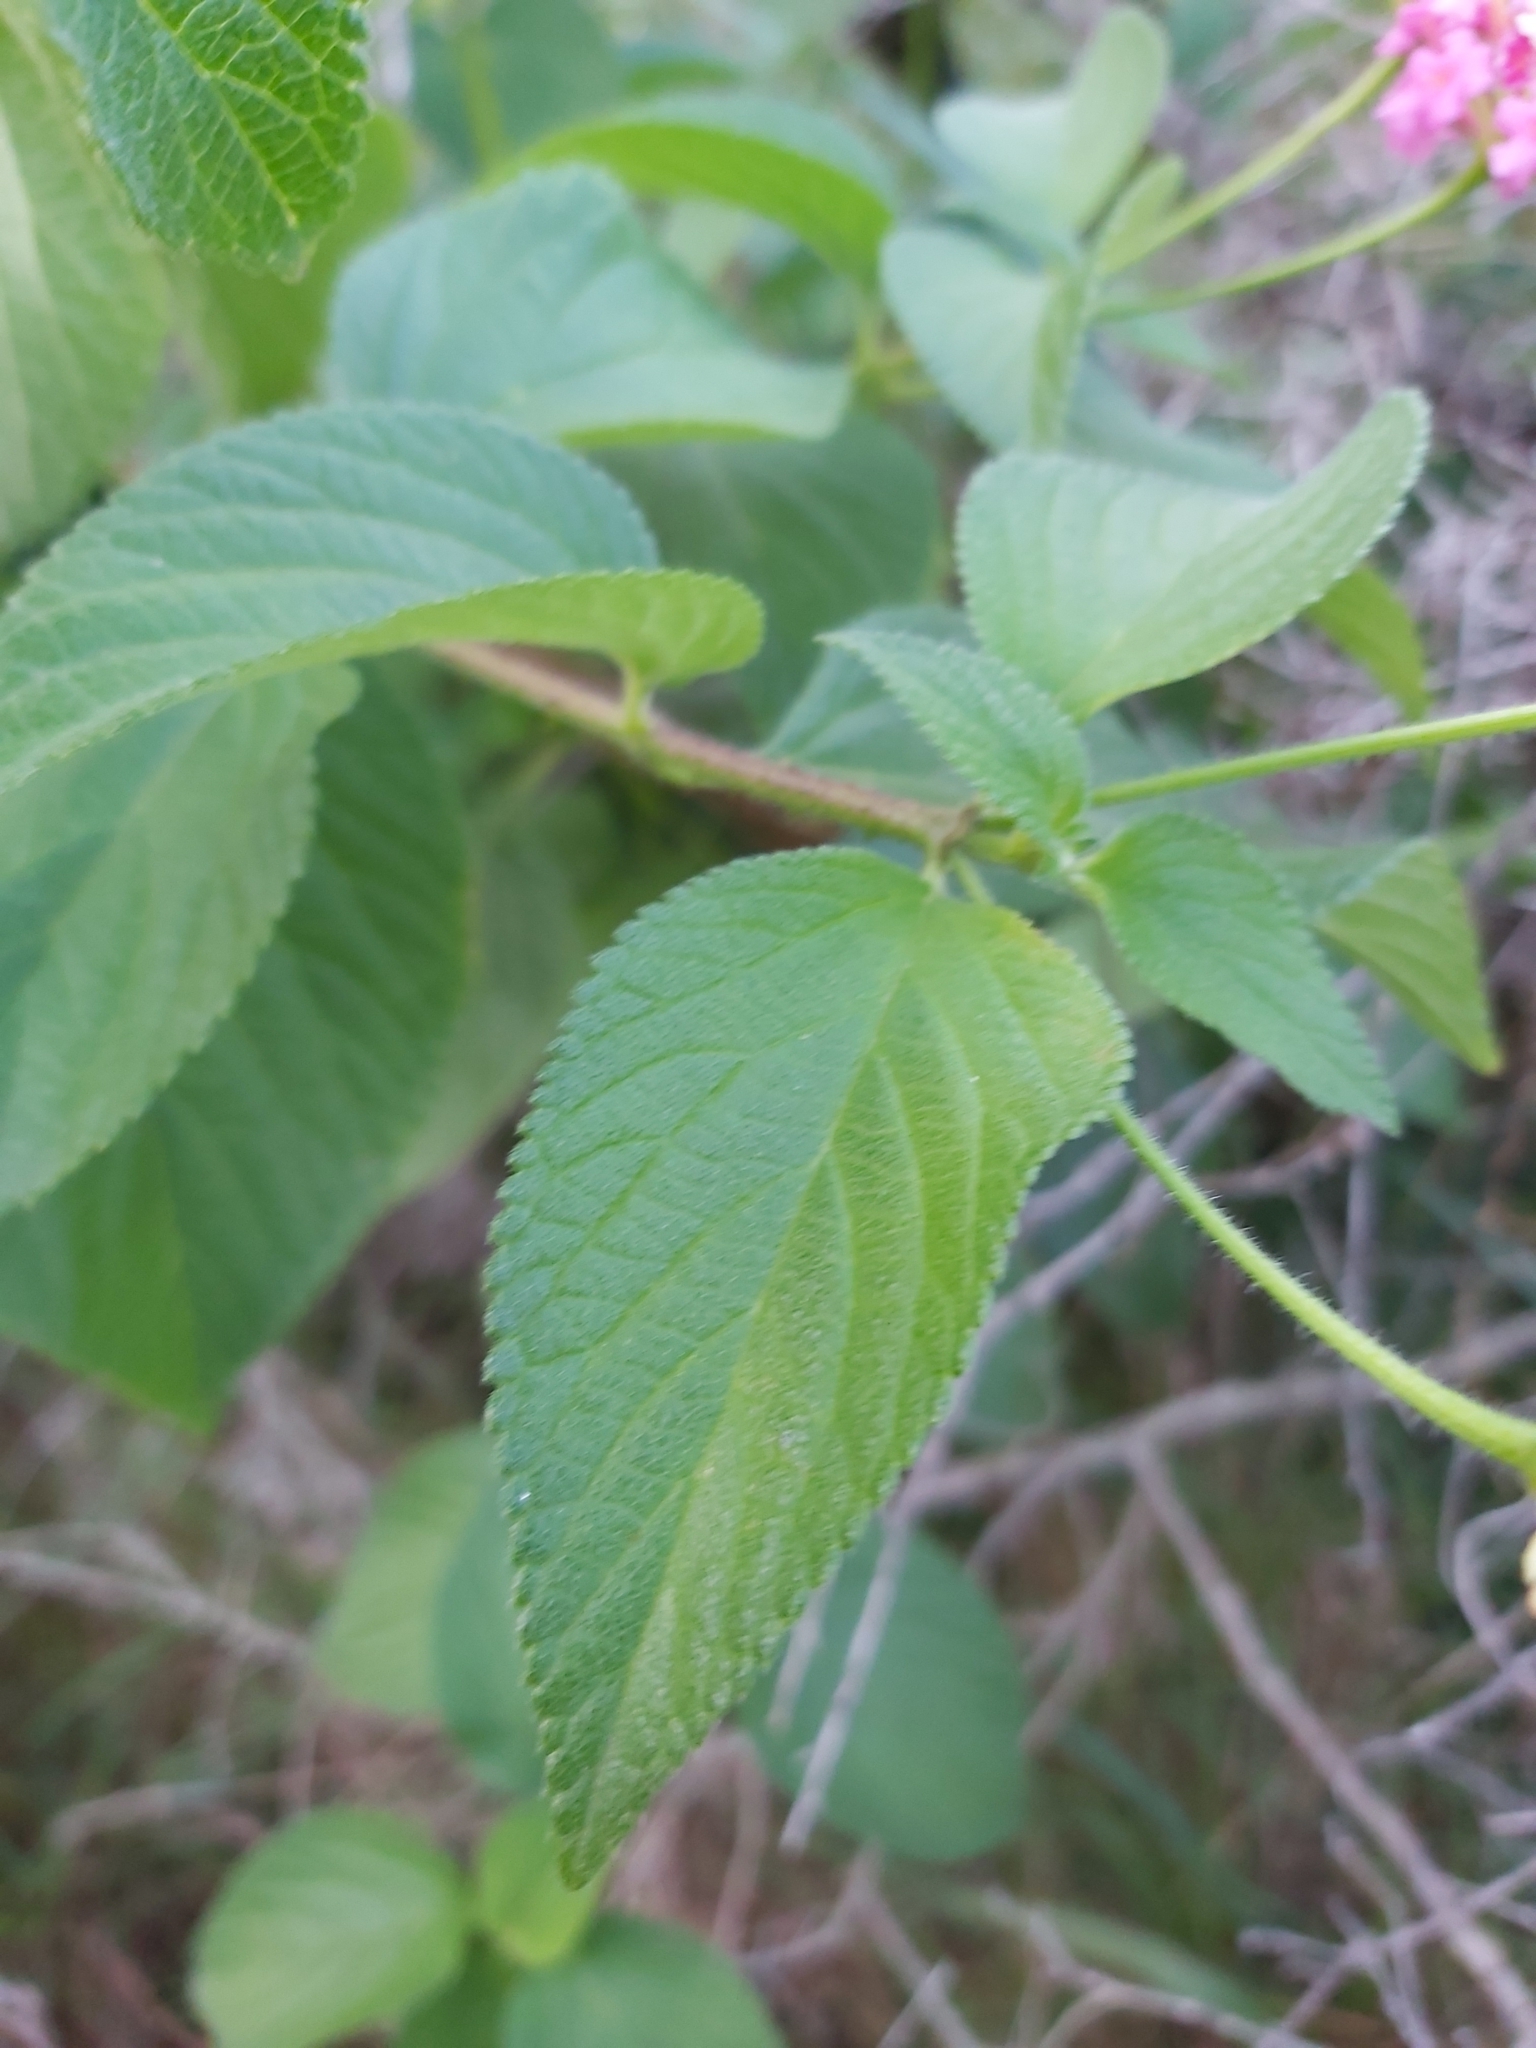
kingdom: Plantae
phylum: Tracheophyta
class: Magnoliopsida
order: Lamiales
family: Verbenaceae
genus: Lantana
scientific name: Lantana camara
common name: Lantana
